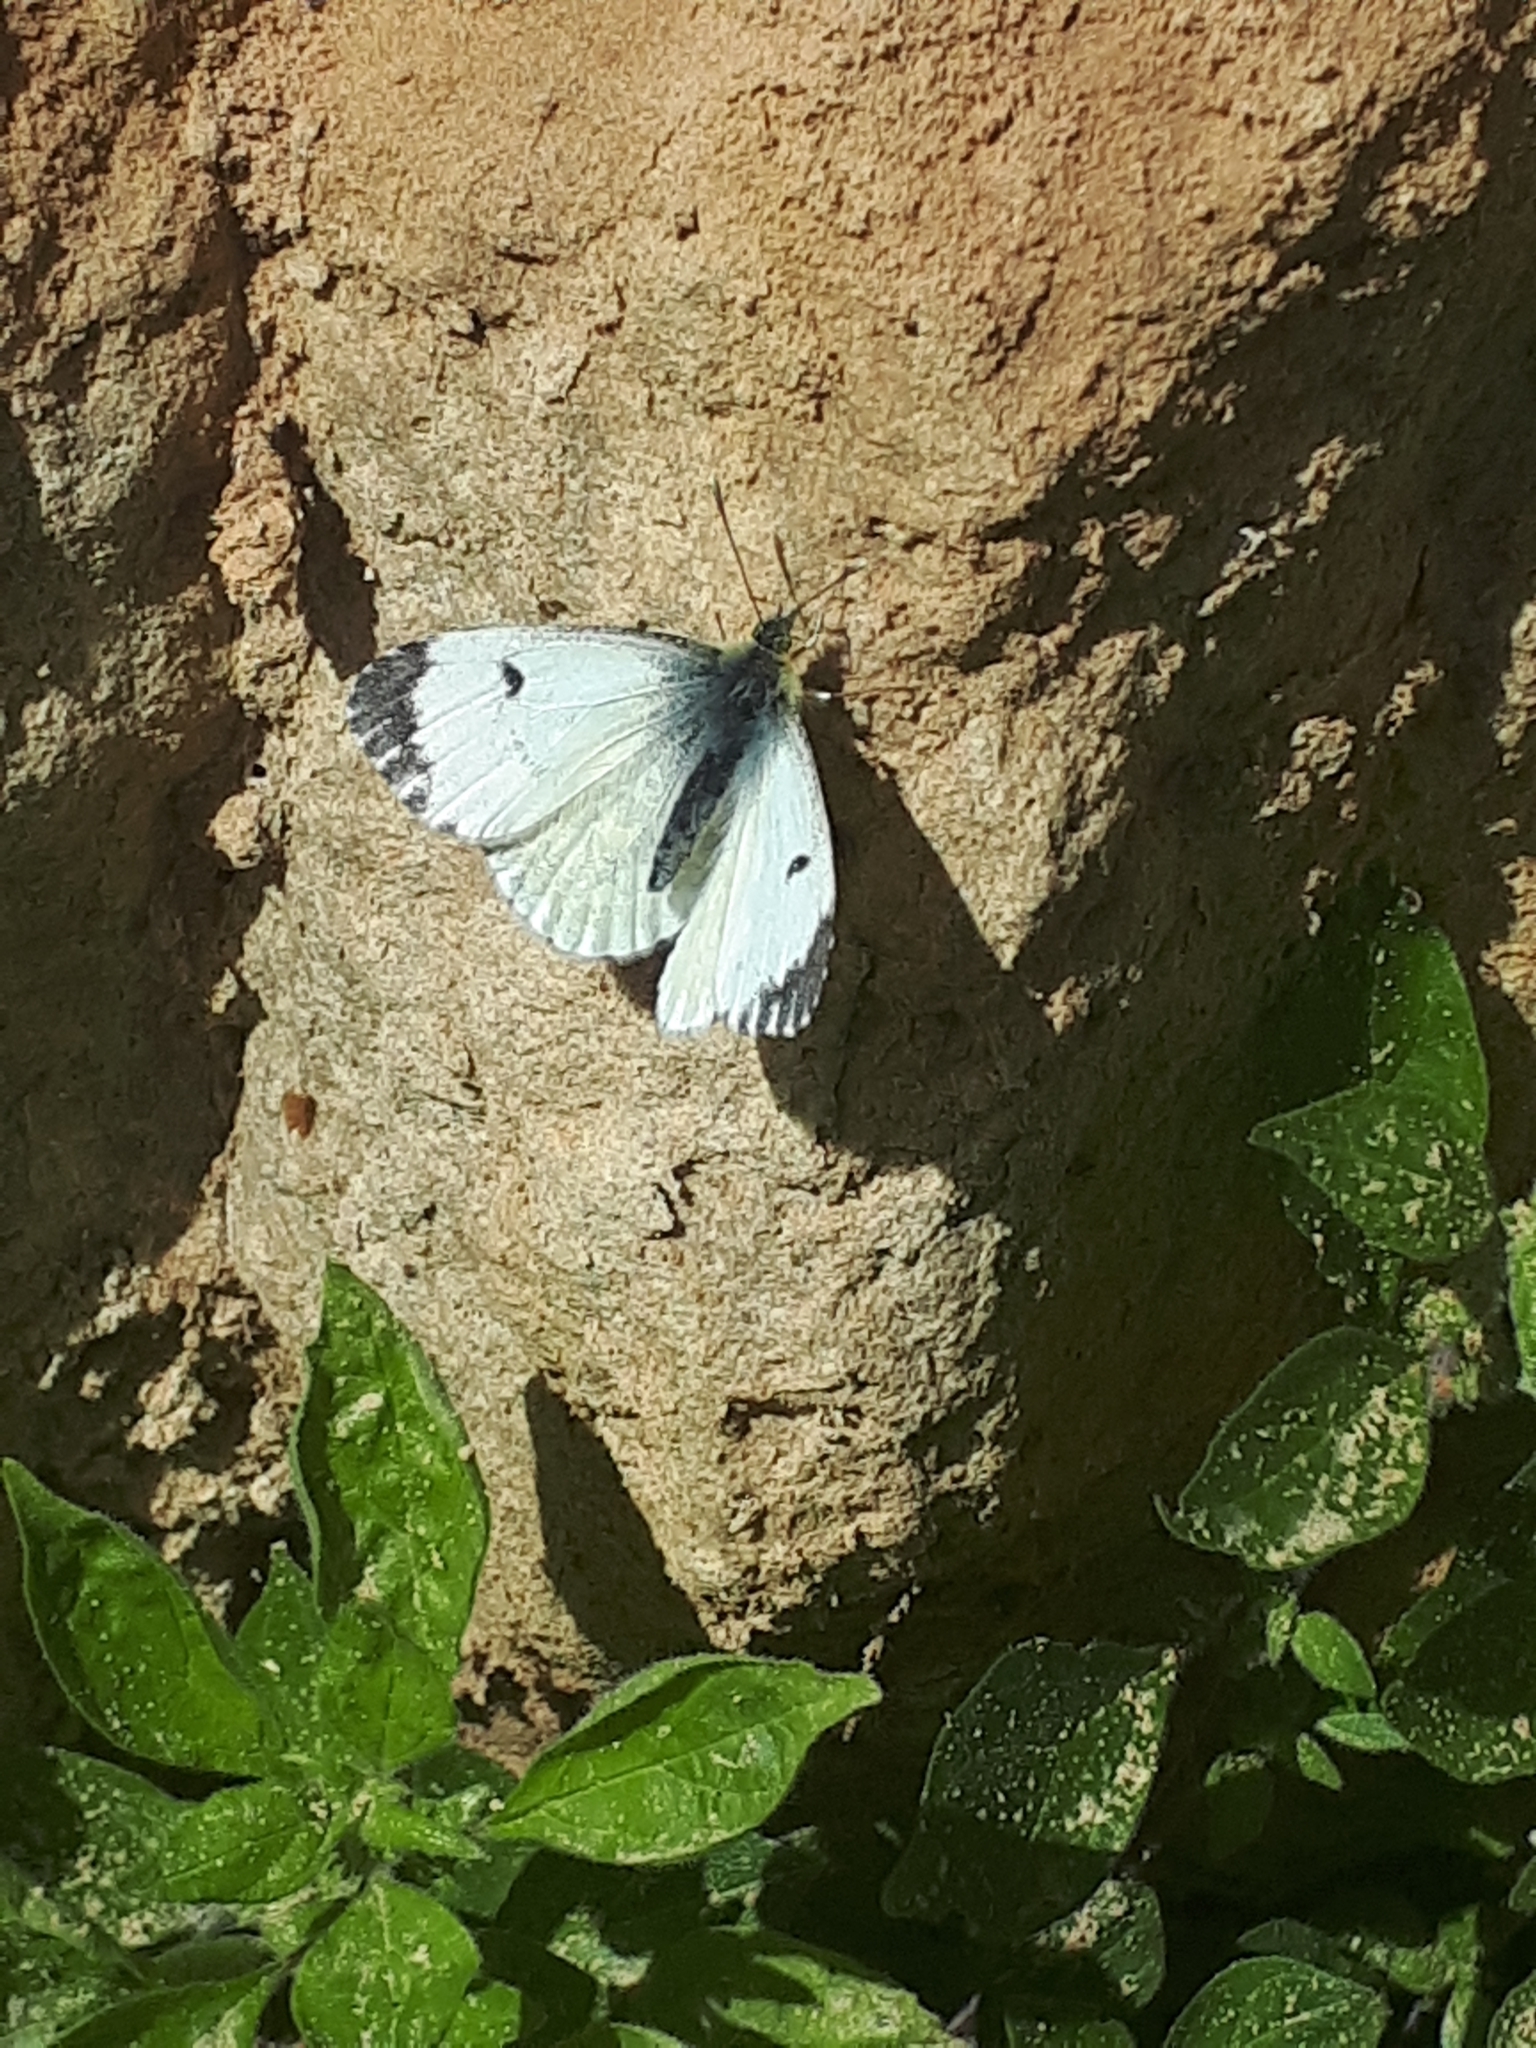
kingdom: Animalia
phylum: Arthropoda
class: Insecta
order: Lepidoptera
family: Pieridae
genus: Anthocharis
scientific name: Anthocharis cardamines
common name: Orange-tip
